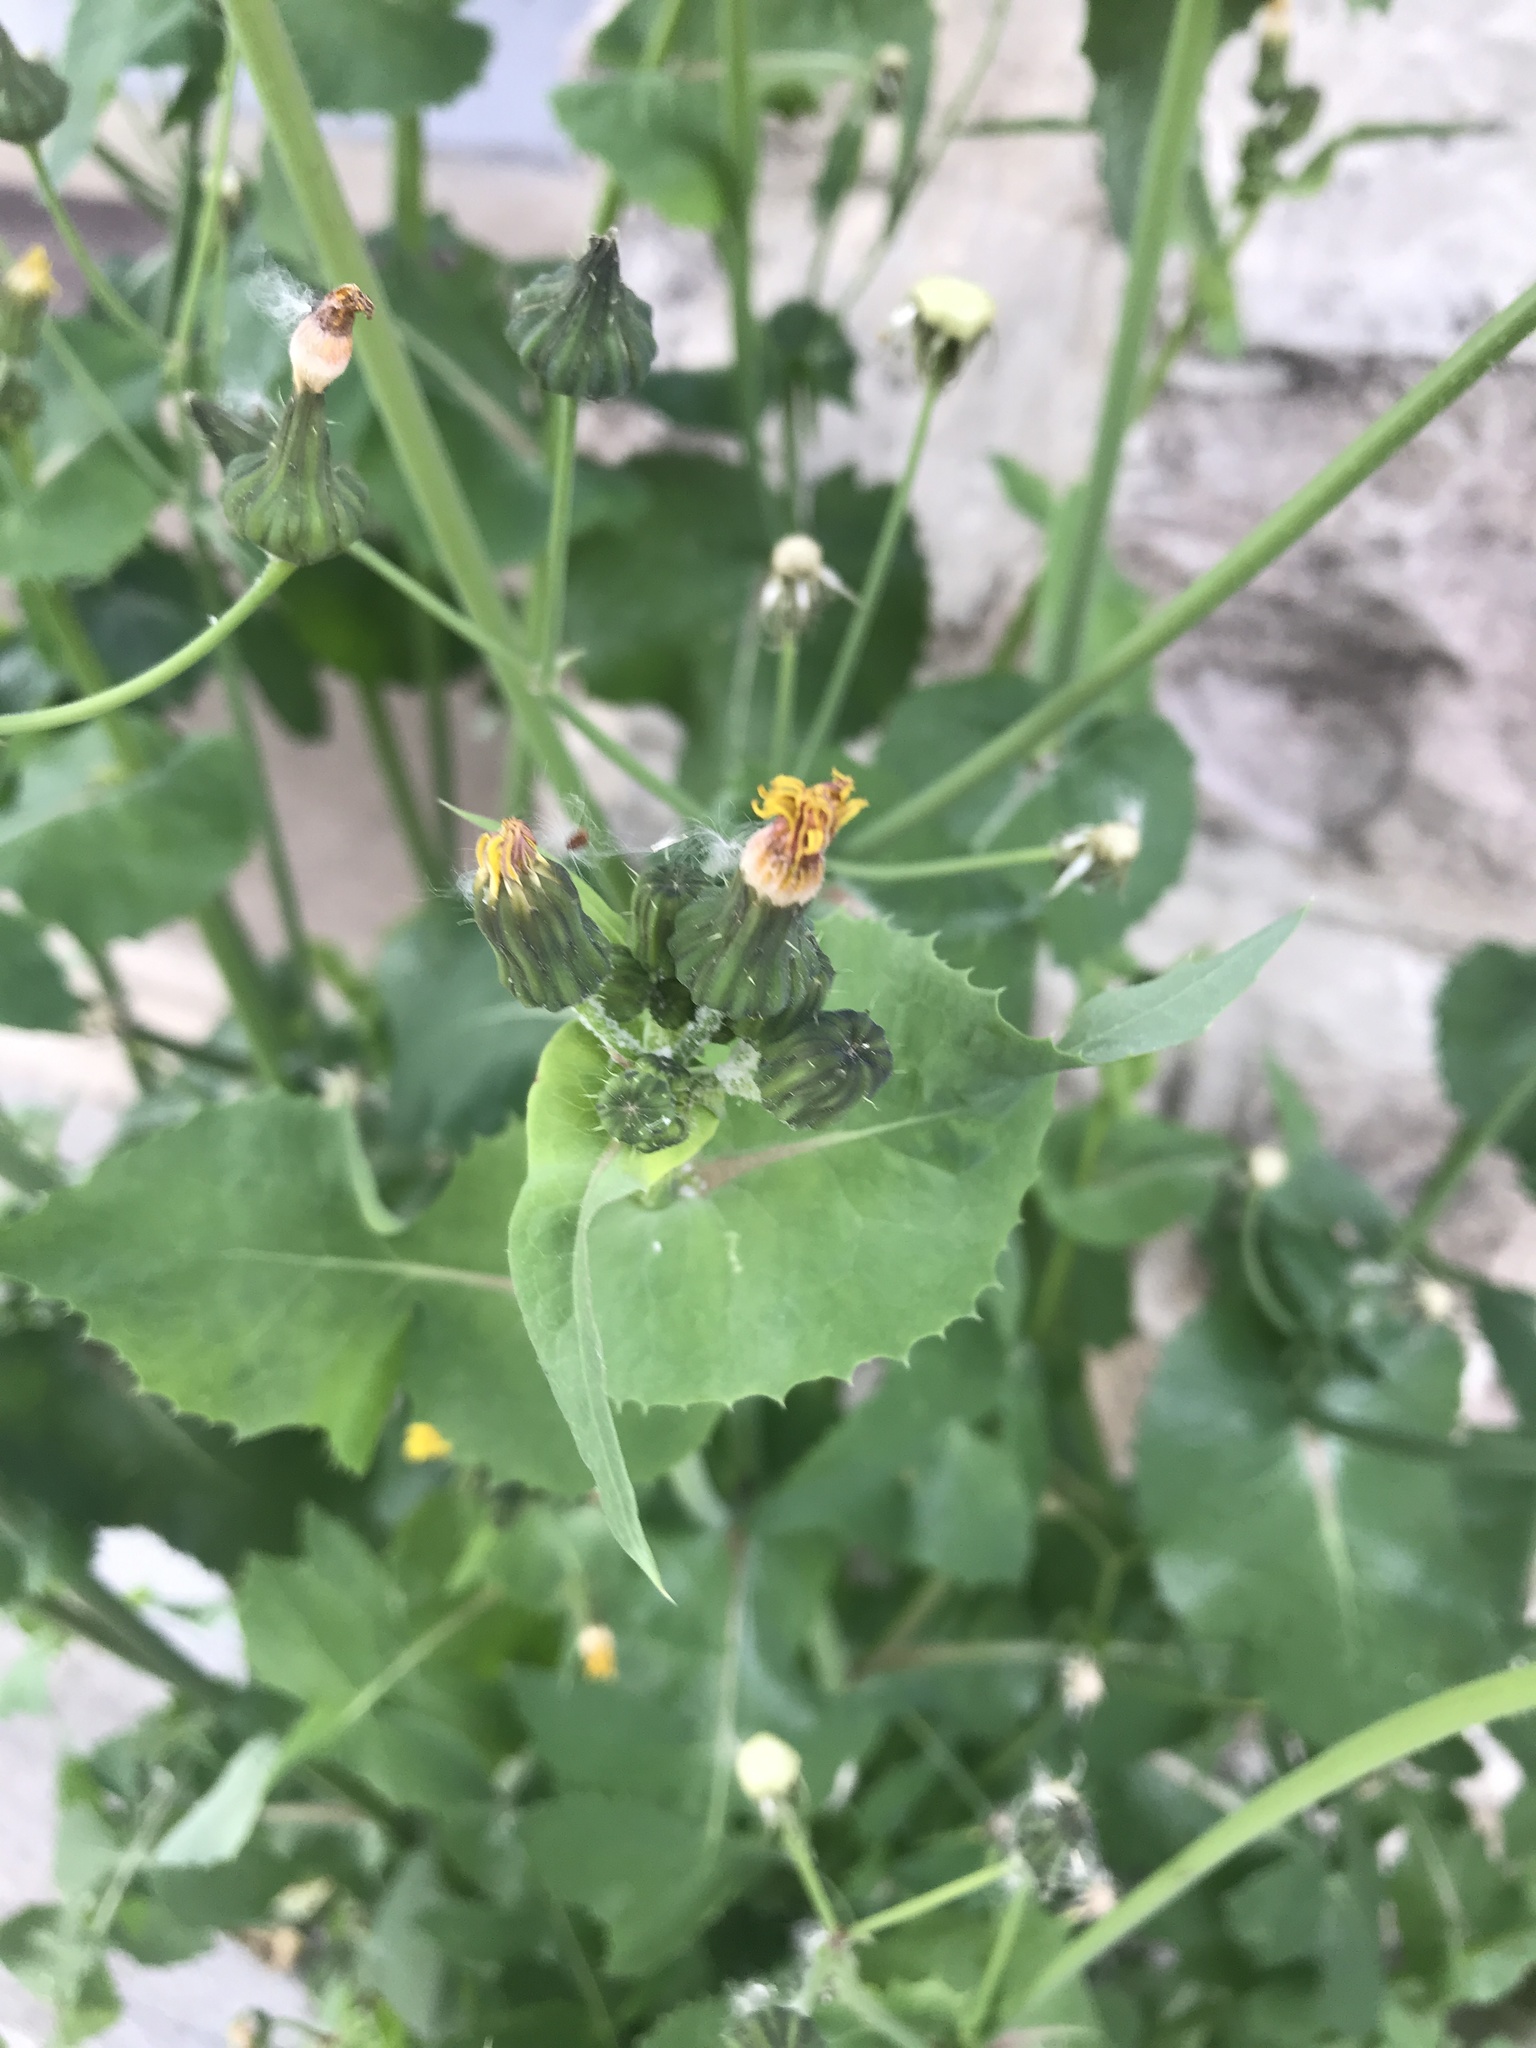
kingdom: Plantae
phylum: Tracheophyta
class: Magnoliopsida
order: Asterales
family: Asteraceae
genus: Sonchus
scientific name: Sonchus oleraceus
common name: Common sowthistle
